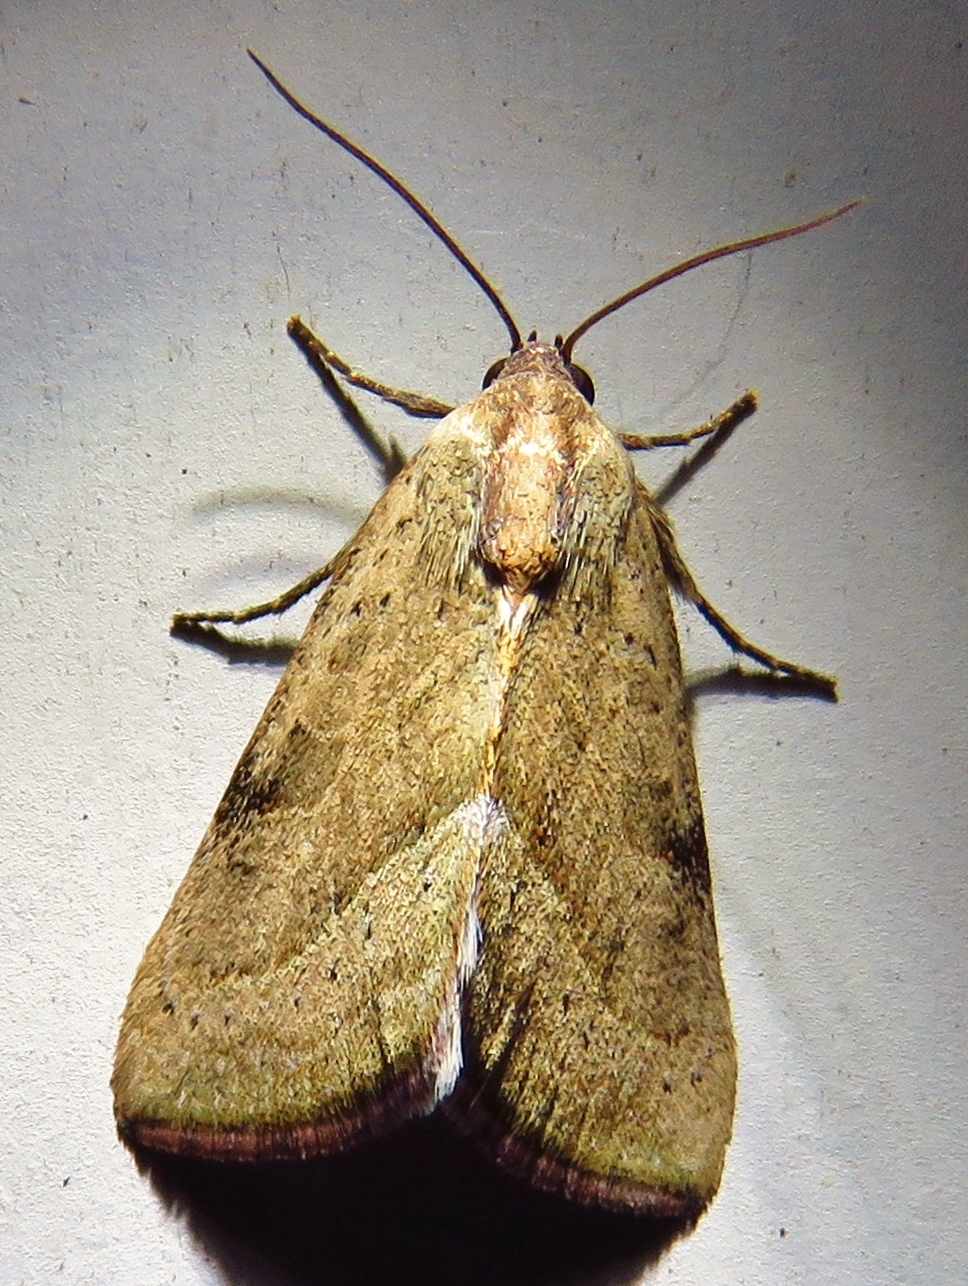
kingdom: Animalia
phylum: Arthropoda
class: Insecta
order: Lepidoptera
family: Noctuidae
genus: Galgula
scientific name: Galgula partita
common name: Wedgeling
